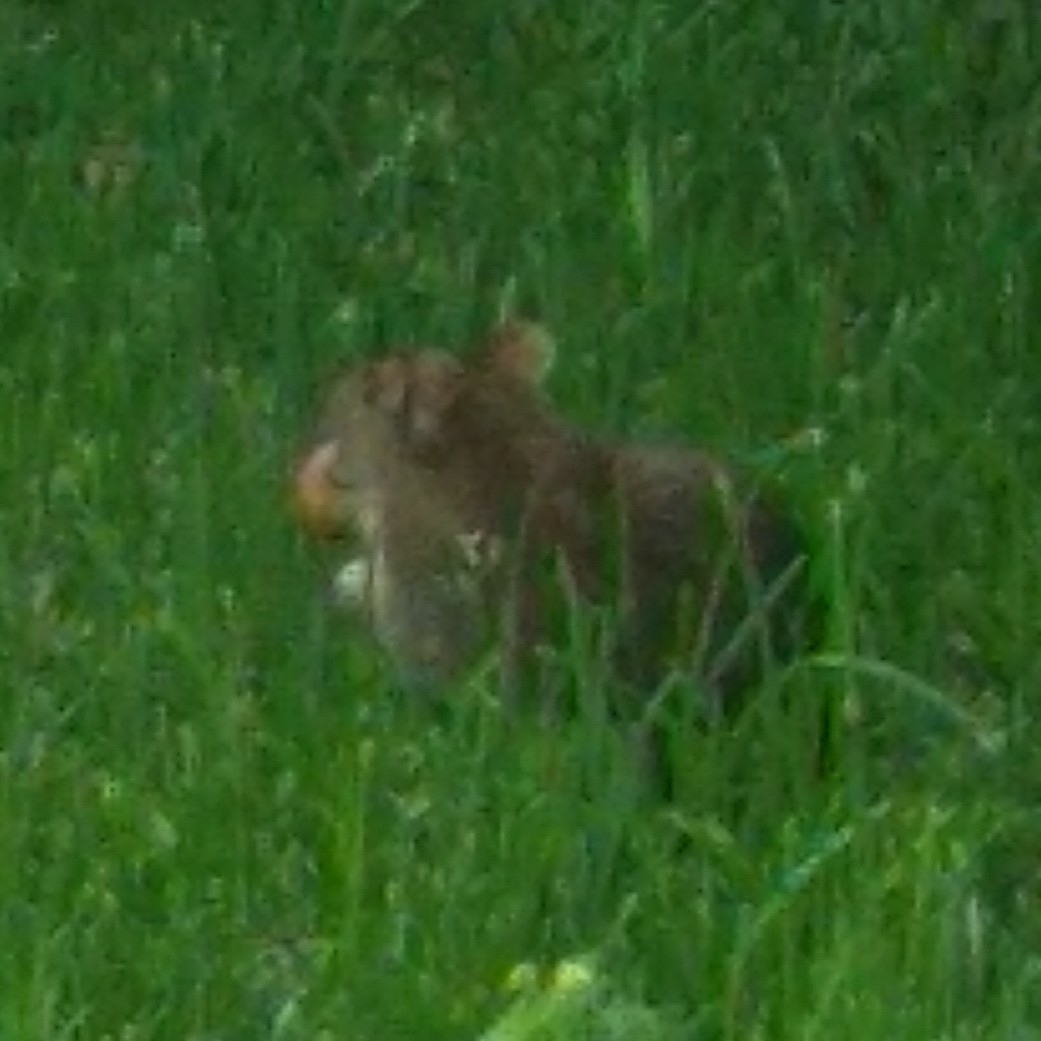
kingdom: Animalia
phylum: Chordata
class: Mammalia
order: Rodentia
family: Muridae
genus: Rattus
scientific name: Rattus norvegicus
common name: Brown rat
